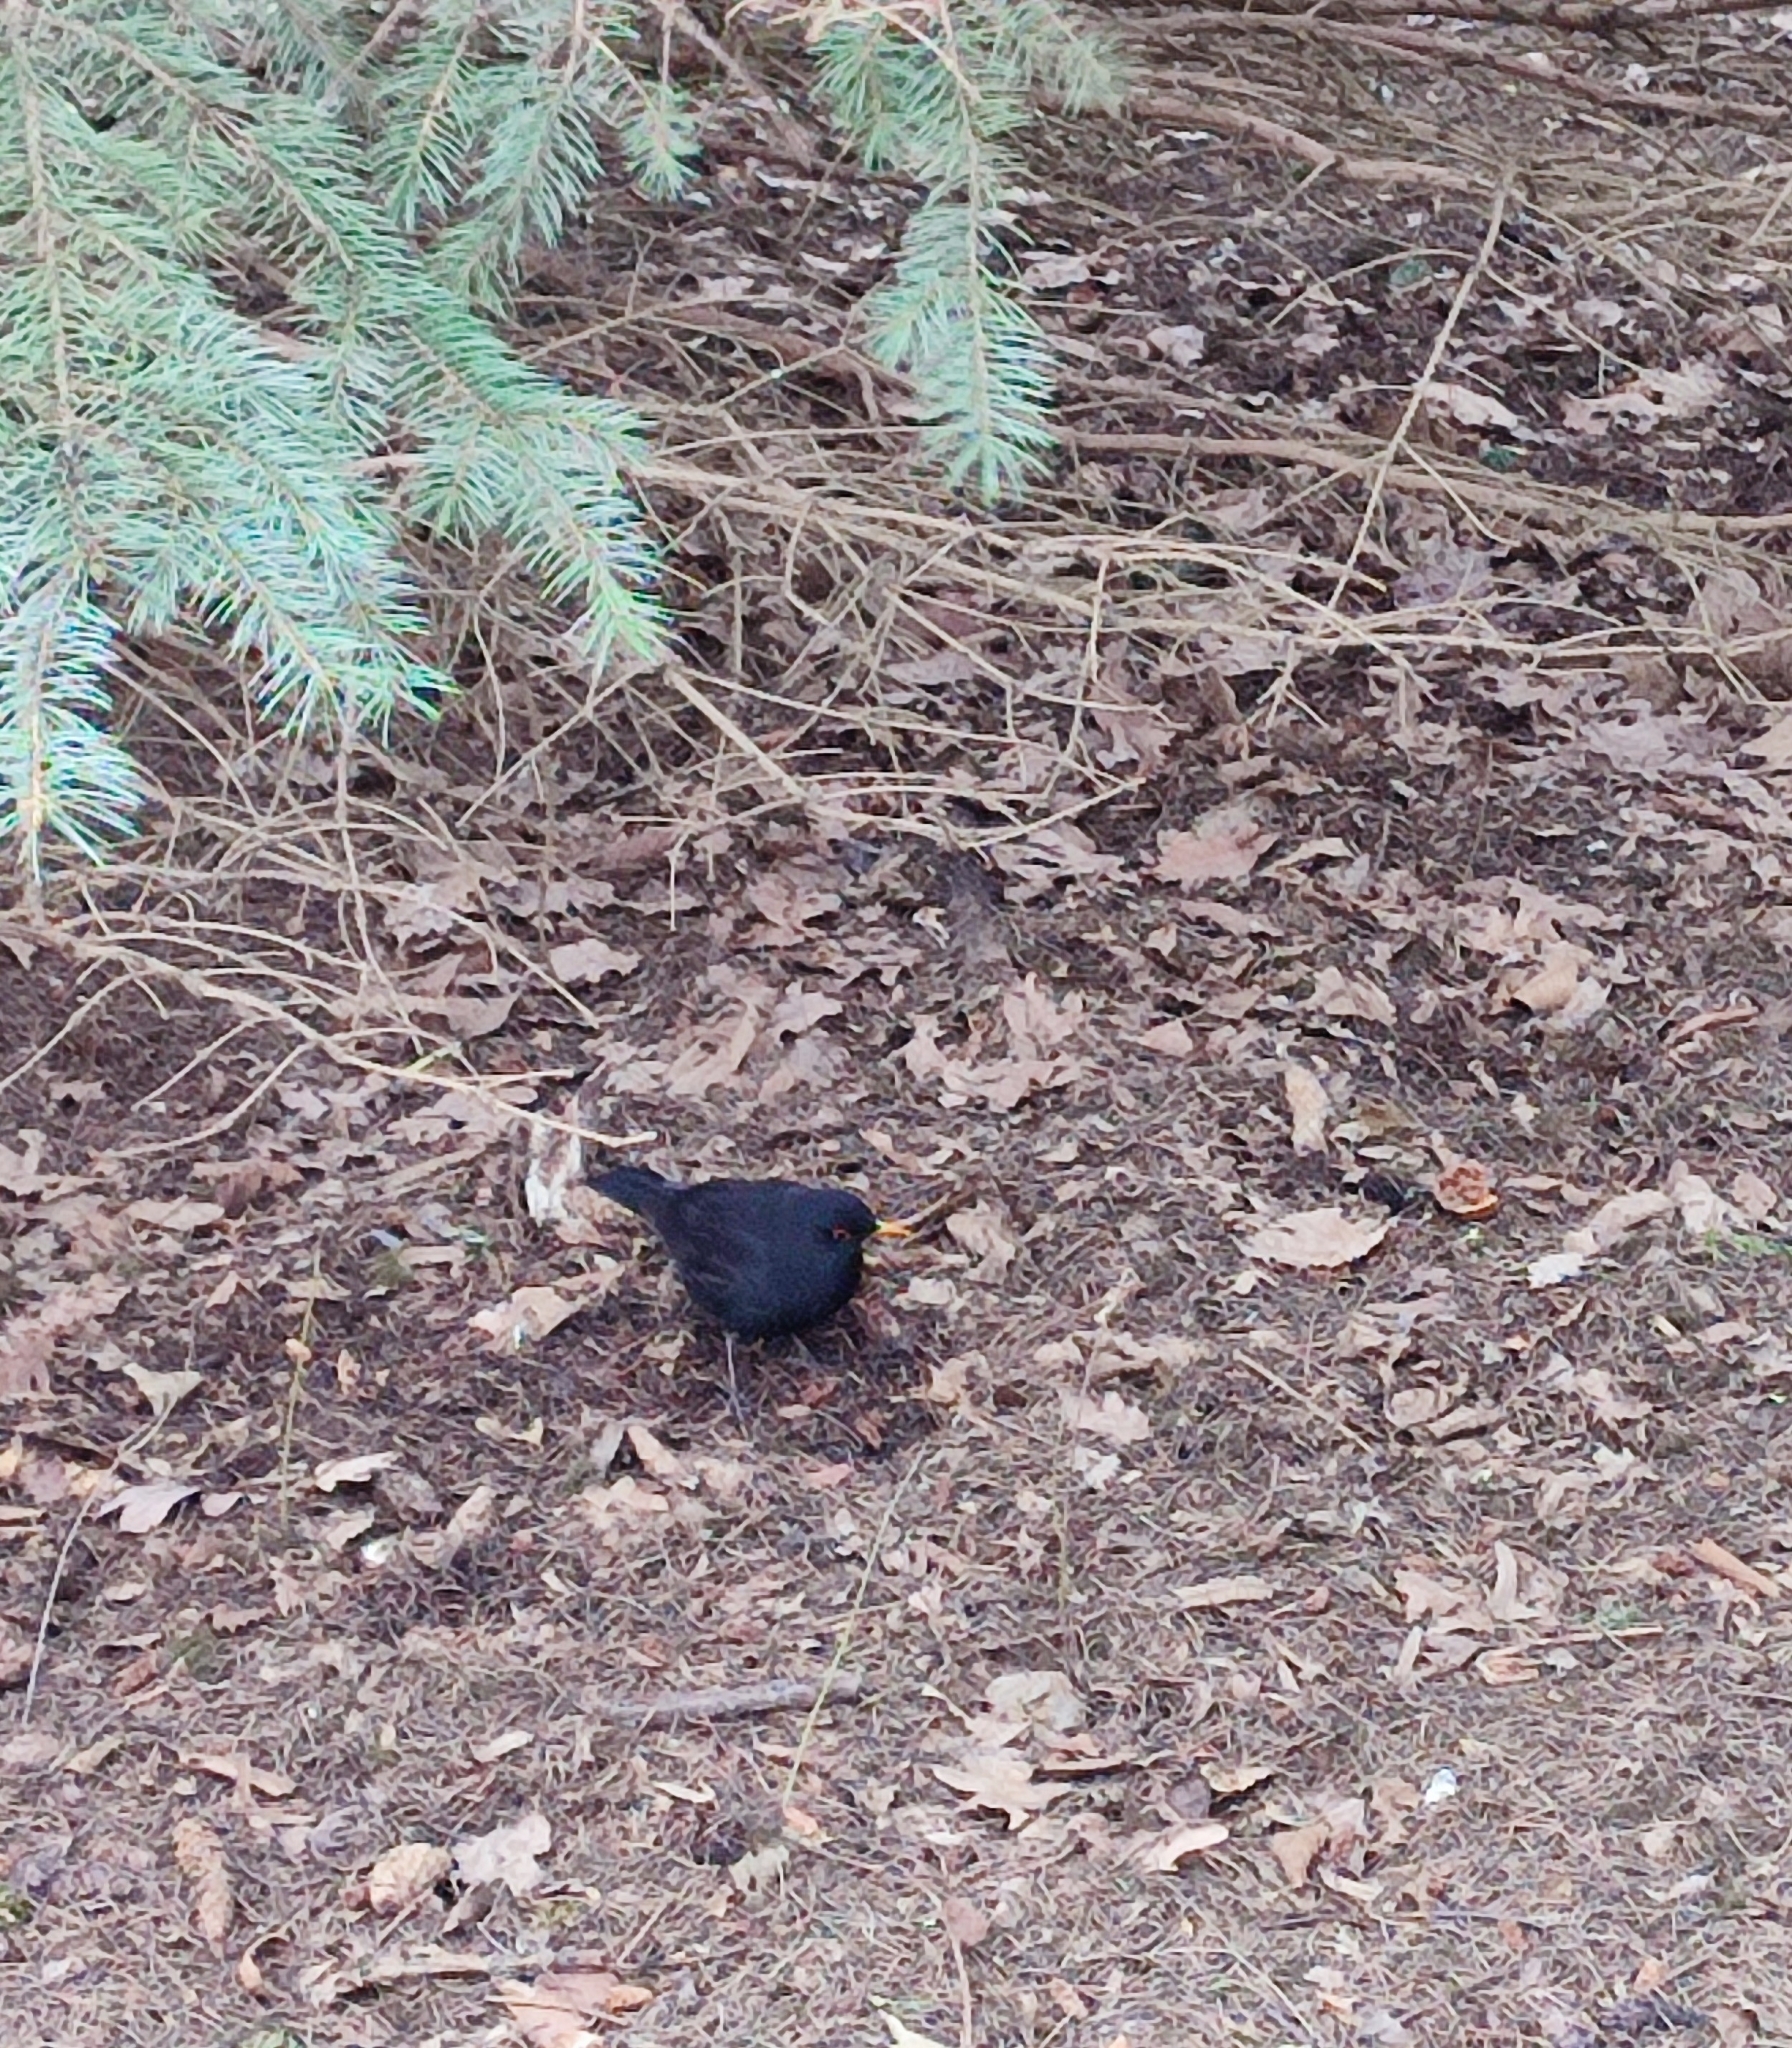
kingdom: Animalia
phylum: Chordata
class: Aves
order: Passeriformes
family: Turdidae
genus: Turdus
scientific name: Turdus merula
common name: Common blackbird
